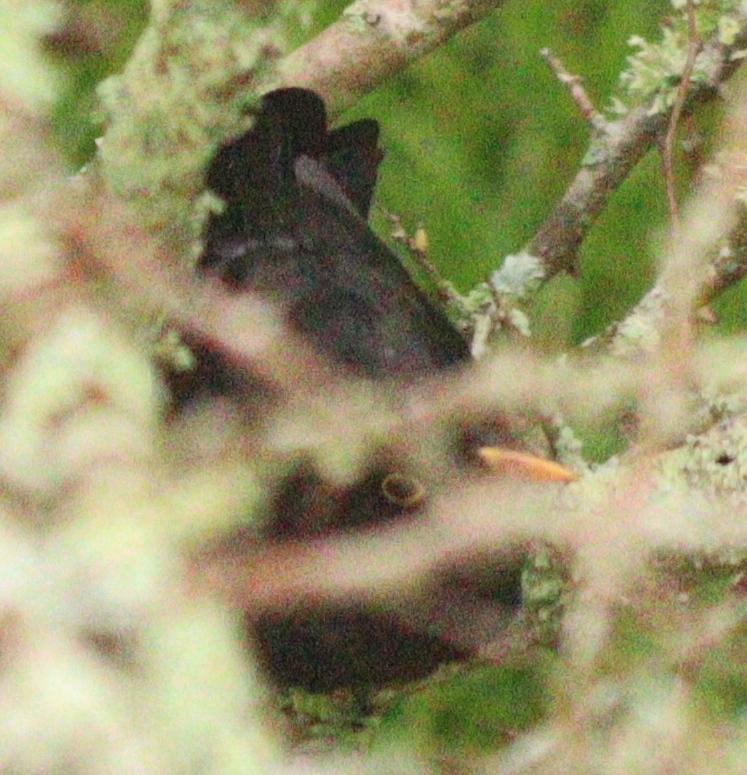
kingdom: Animalia
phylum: Chordata
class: Aves
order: Passeriformes
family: Turdidae
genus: Turdus
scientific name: Turdus merula
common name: Common blackbird
